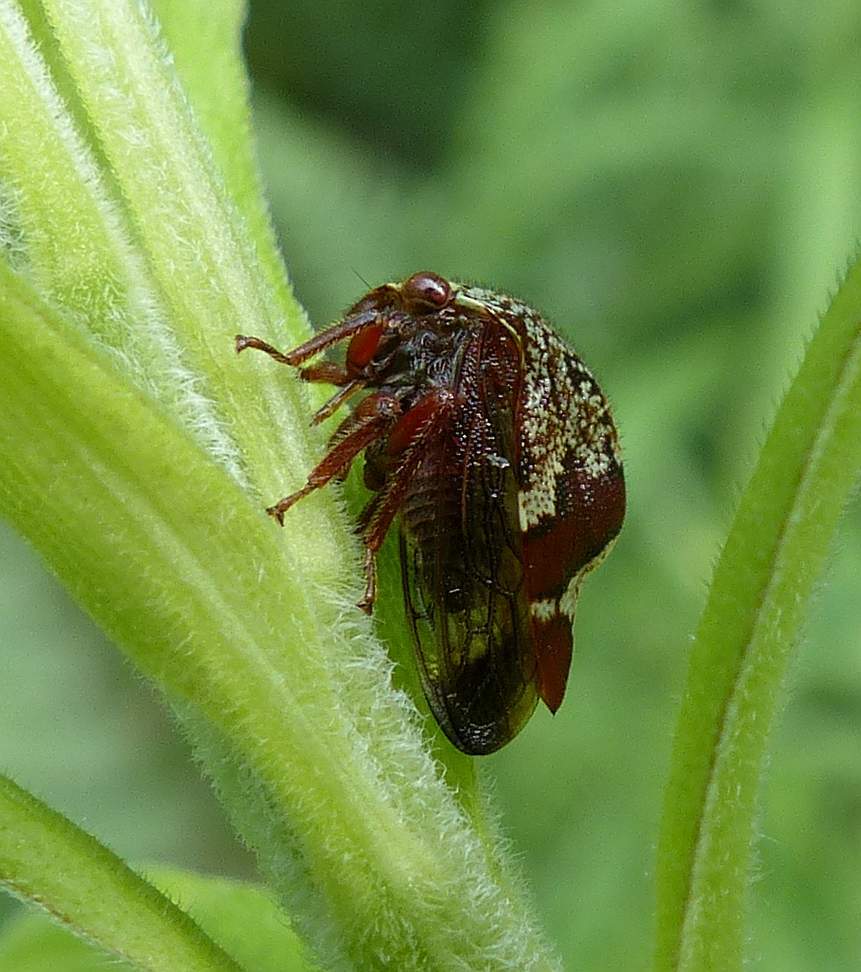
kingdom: Animalia
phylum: Arthropoda
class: Insecta
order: Hemiptera
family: Membracidae
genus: Carynota
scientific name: Carynota marmorata
